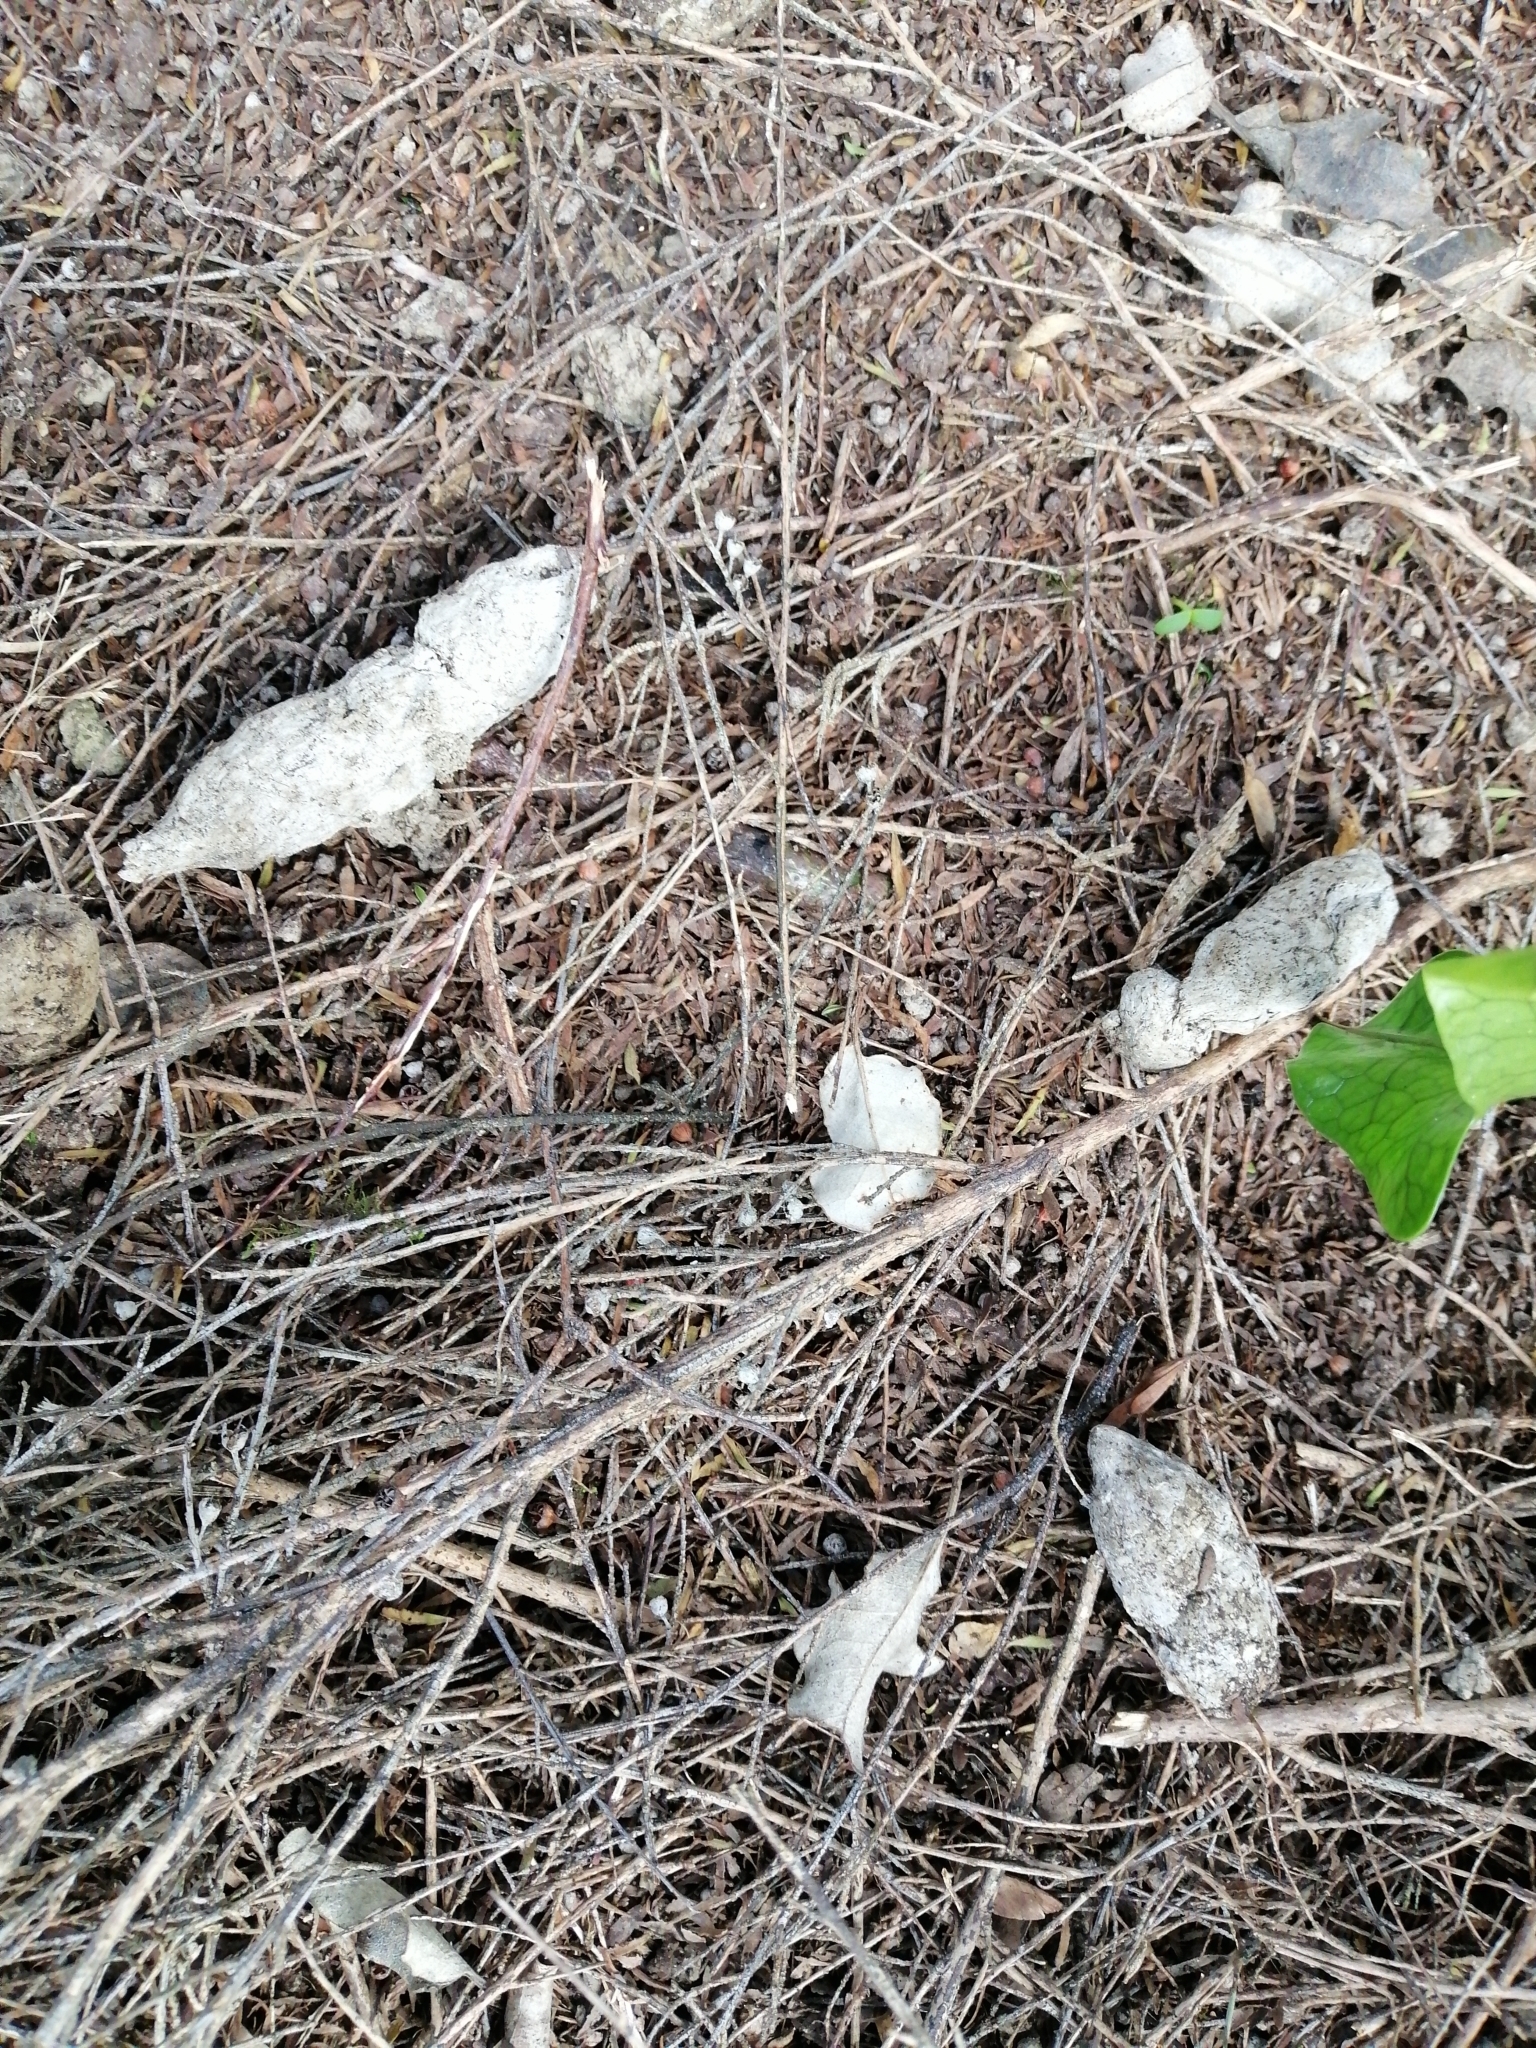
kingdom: Animalia
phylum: Chordata
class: Mammalia
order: Carnivora
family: Felidae
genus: Felis
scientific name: Felis catus
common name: Domestic cat
